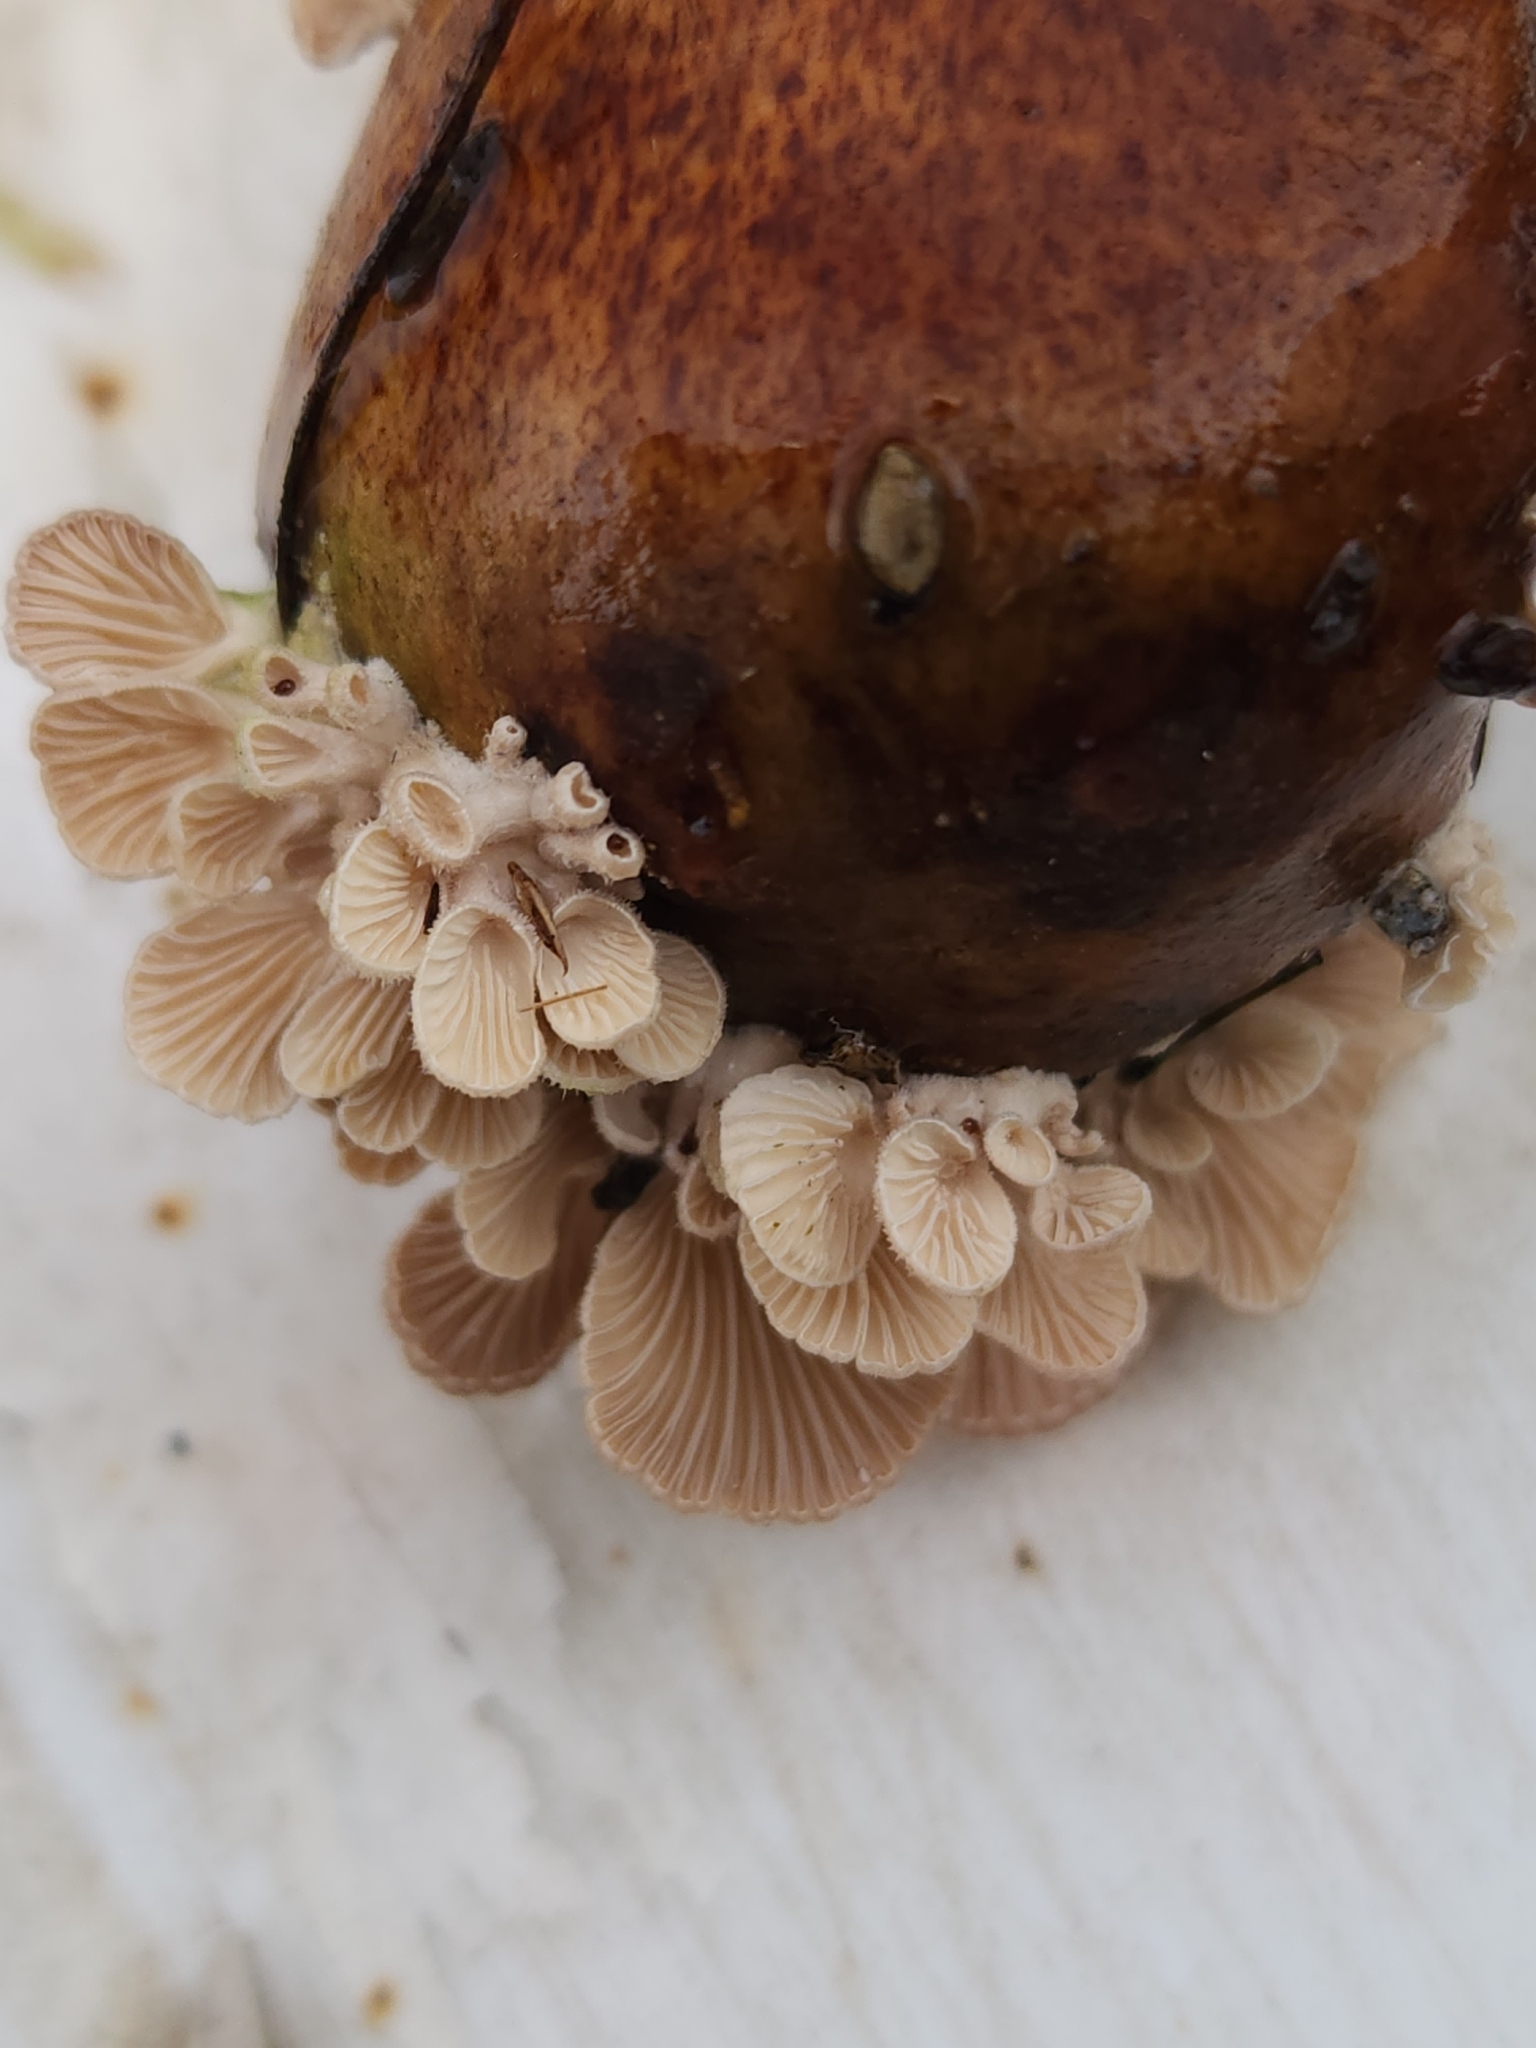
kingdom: Fungi
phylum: Basidiomycota
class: Agaricomycetes
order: Agaricales
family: Schizophyllaceae
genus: Schizophyllum
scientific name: Schizophyllum commune
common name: Common porecrust
